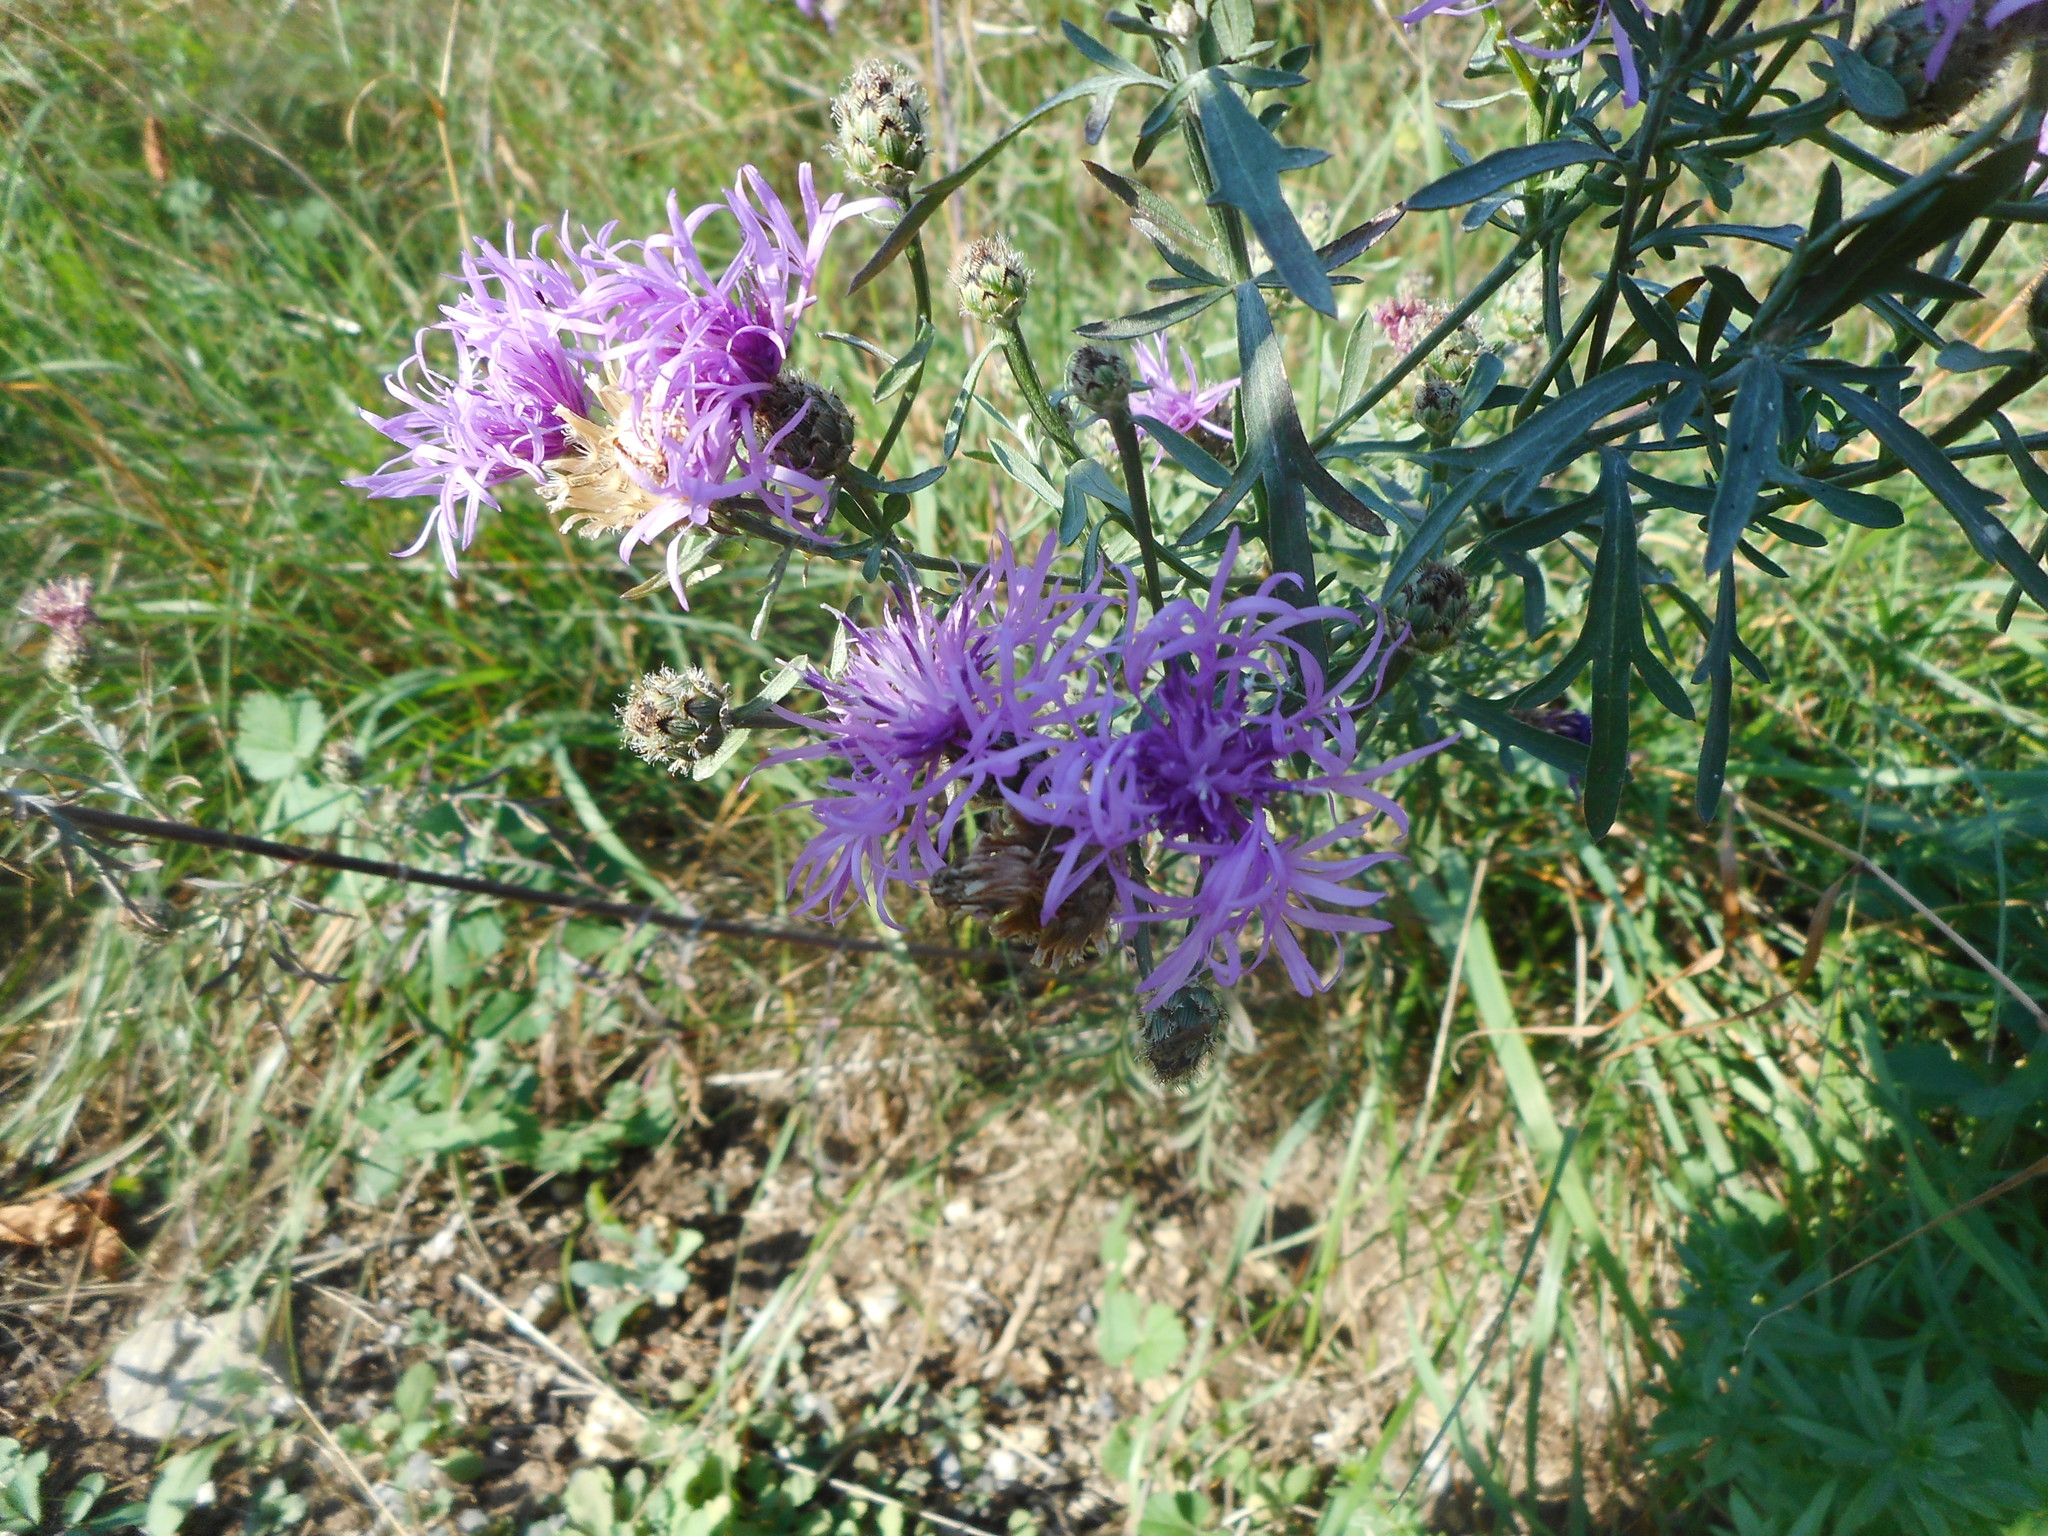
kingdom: Plantae
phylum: Tracheophyta
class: Magnoliopsida
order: Asterales
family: Asteraceae
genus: Centaurea
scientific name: Centaurea stoebe
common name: Spotted knapweed
